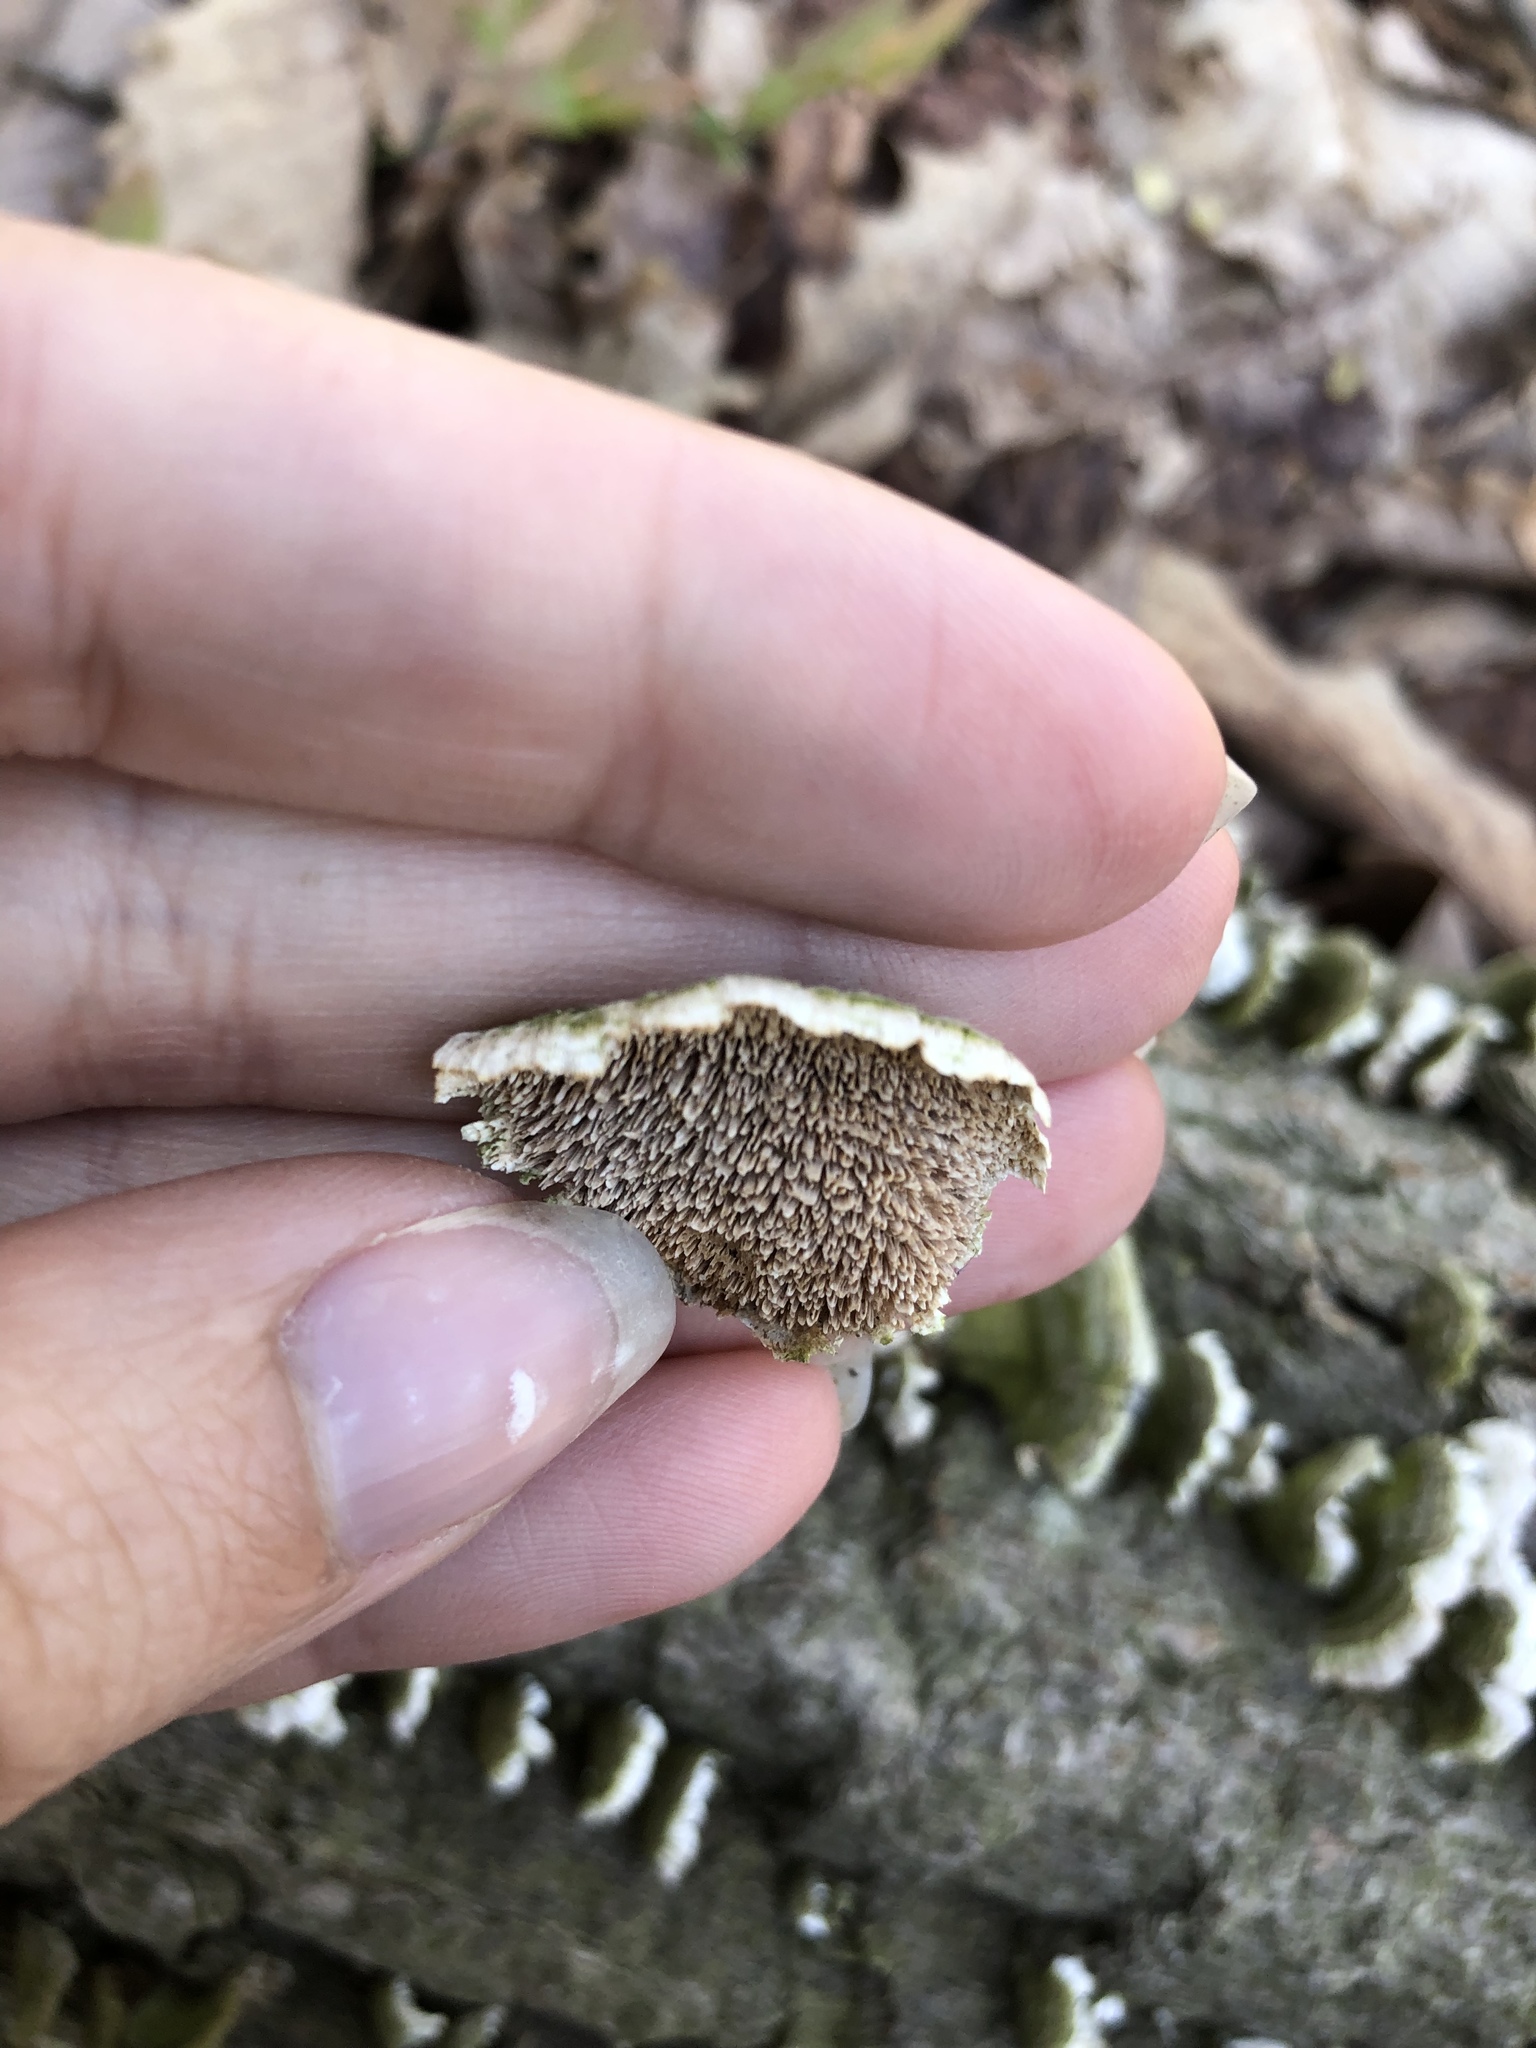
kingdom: Fungi
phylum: Basidiomycota
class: Agaricomycetes
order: Hymenochaetales
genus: Trichaptum
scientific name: Trichaptum biforme
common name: Violet-toothed polypore
